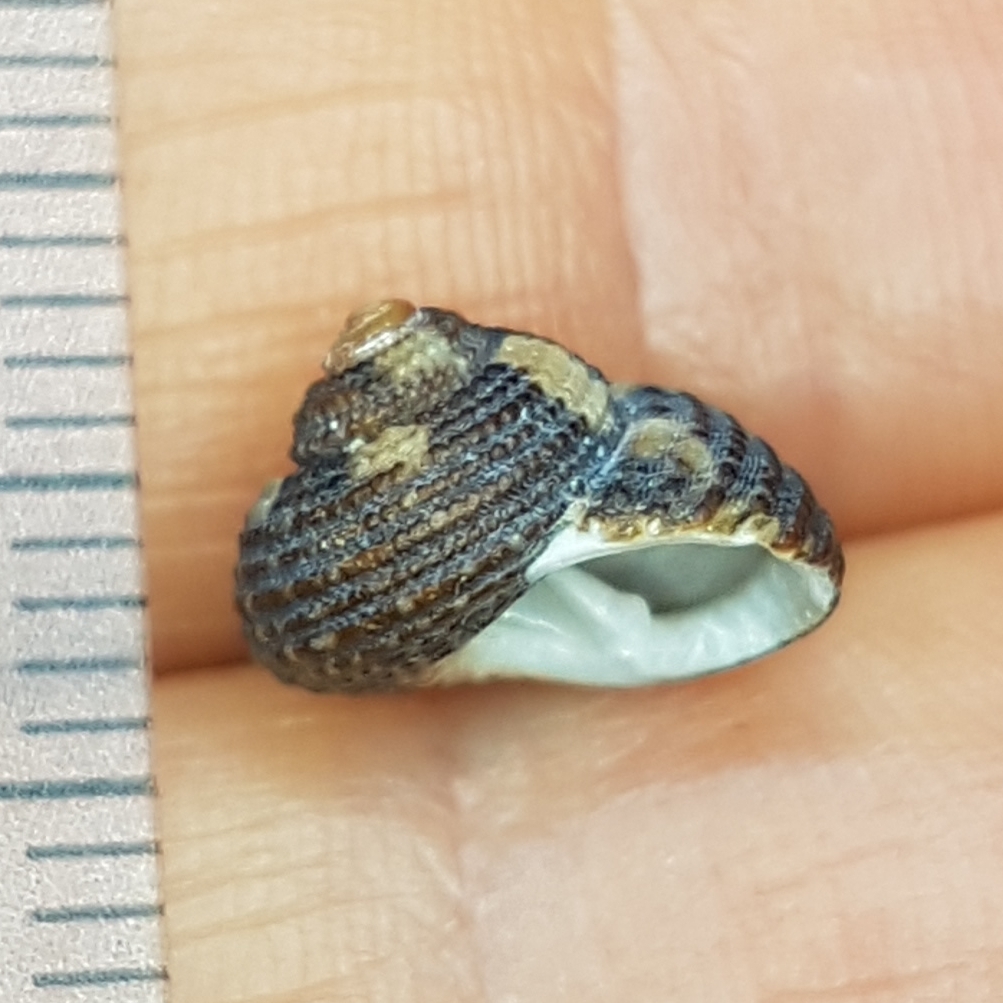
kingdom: Animalia
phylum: Mollusca
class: Gastropoda
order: Trochida
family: Trochidae
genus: Clanculus
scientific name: Clanculus cruciatus
